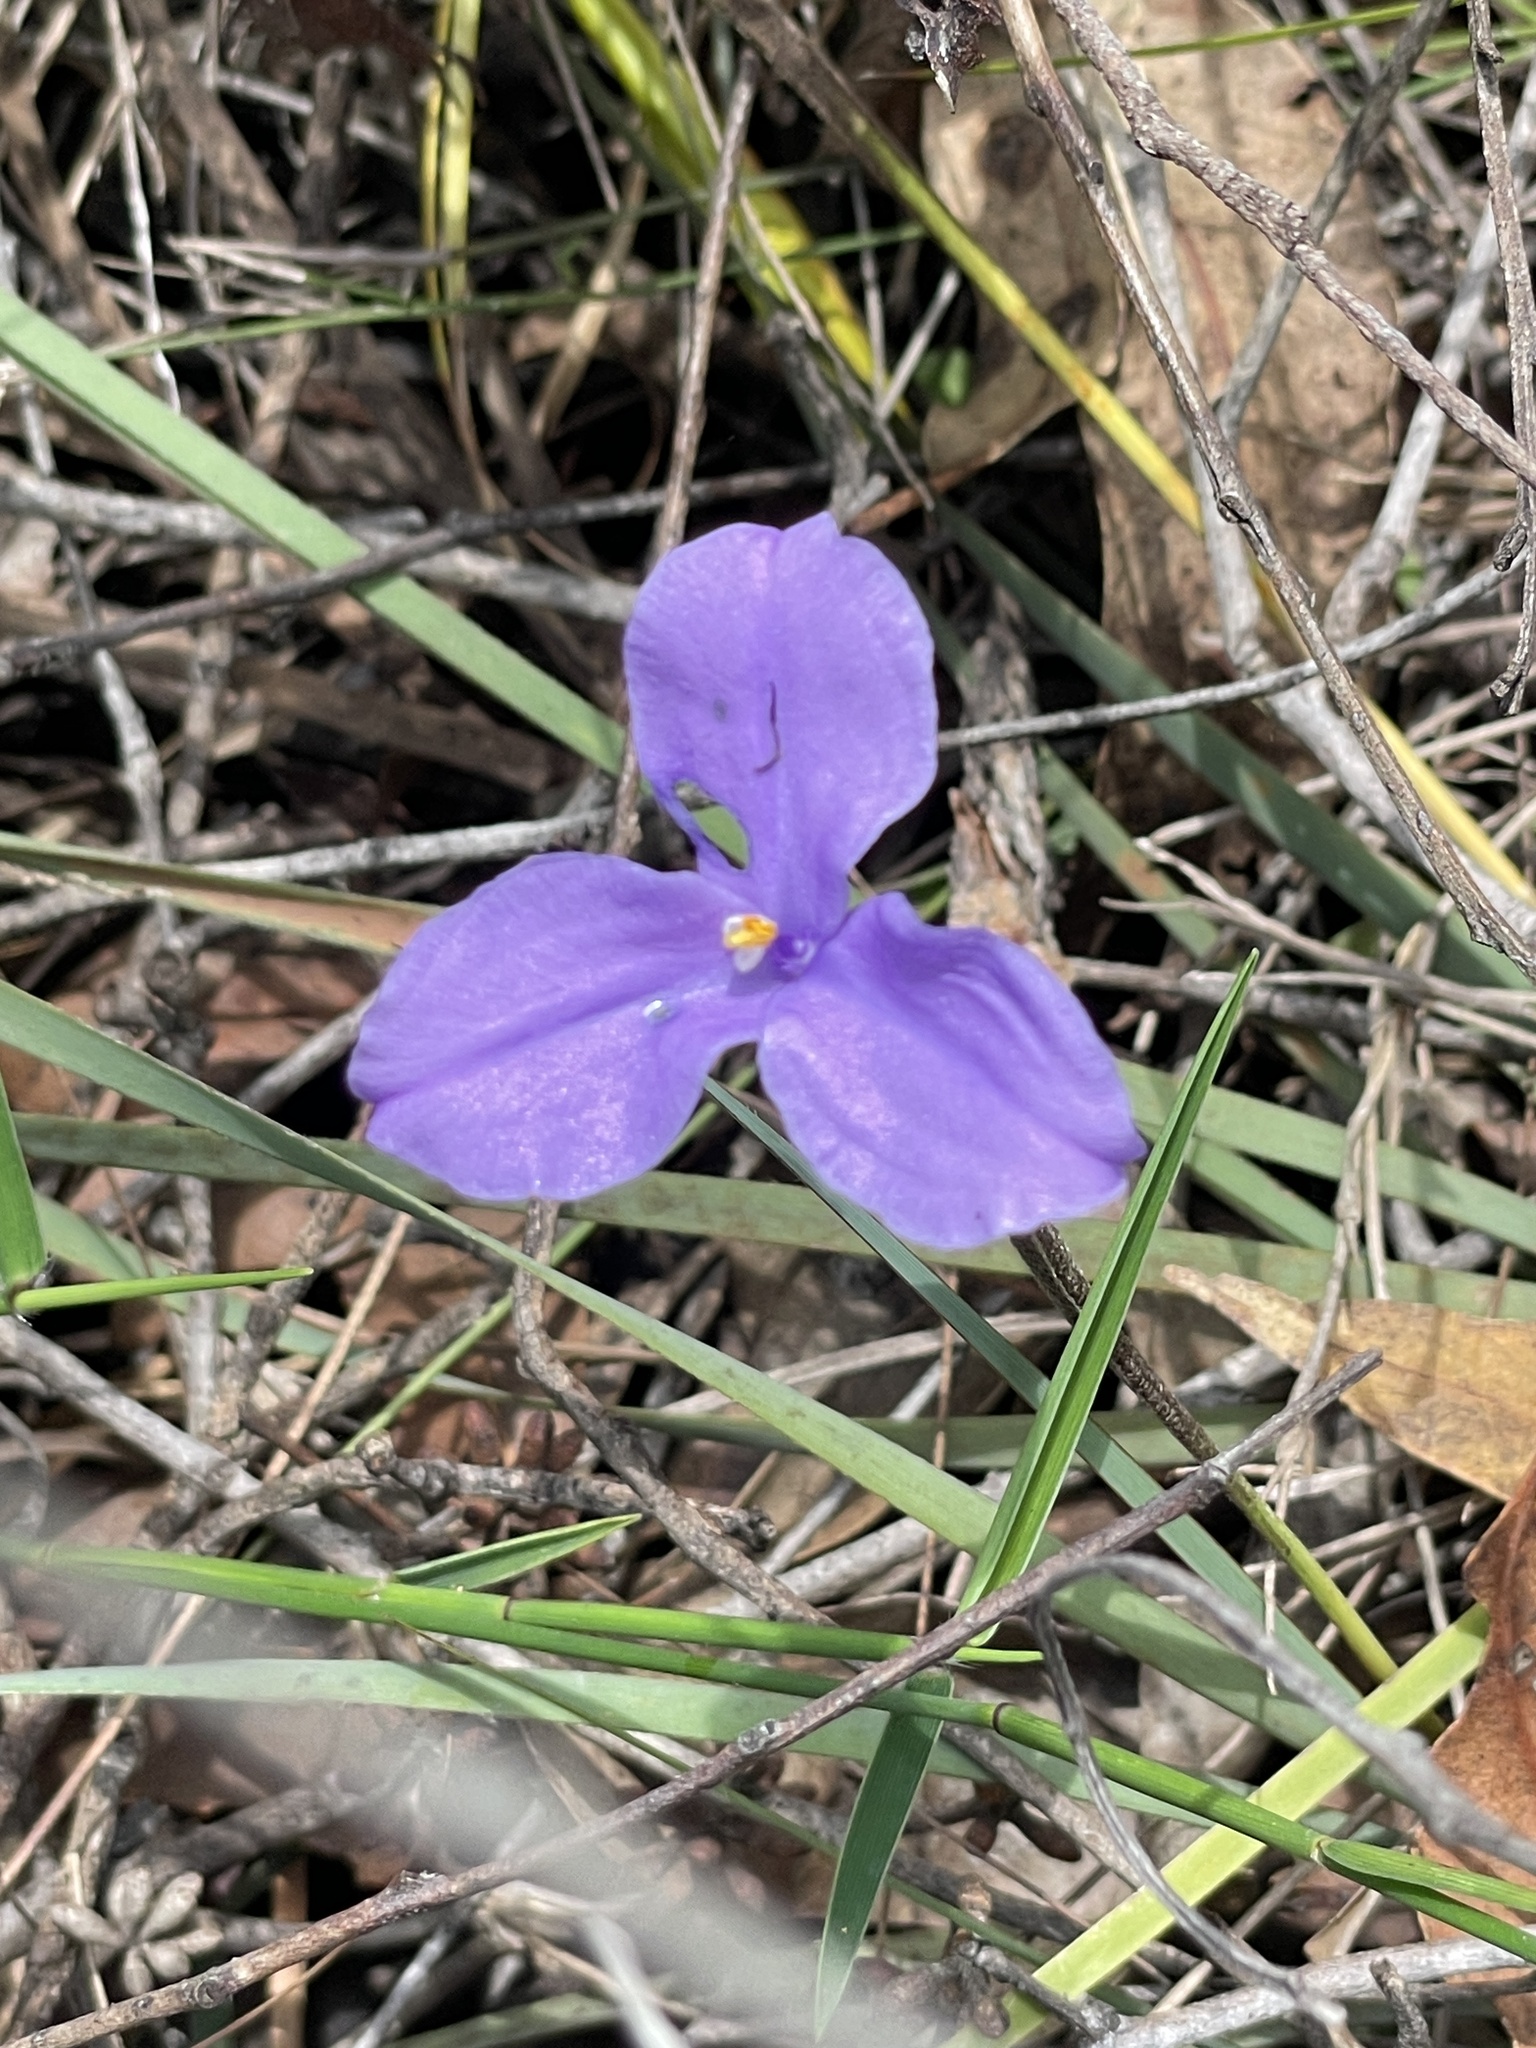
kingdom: Plantae
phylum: Tracheophyta
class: Liliopsida
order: Asparagales
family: Iridaceae
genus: Patersonia
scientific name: Patersonia sericea
